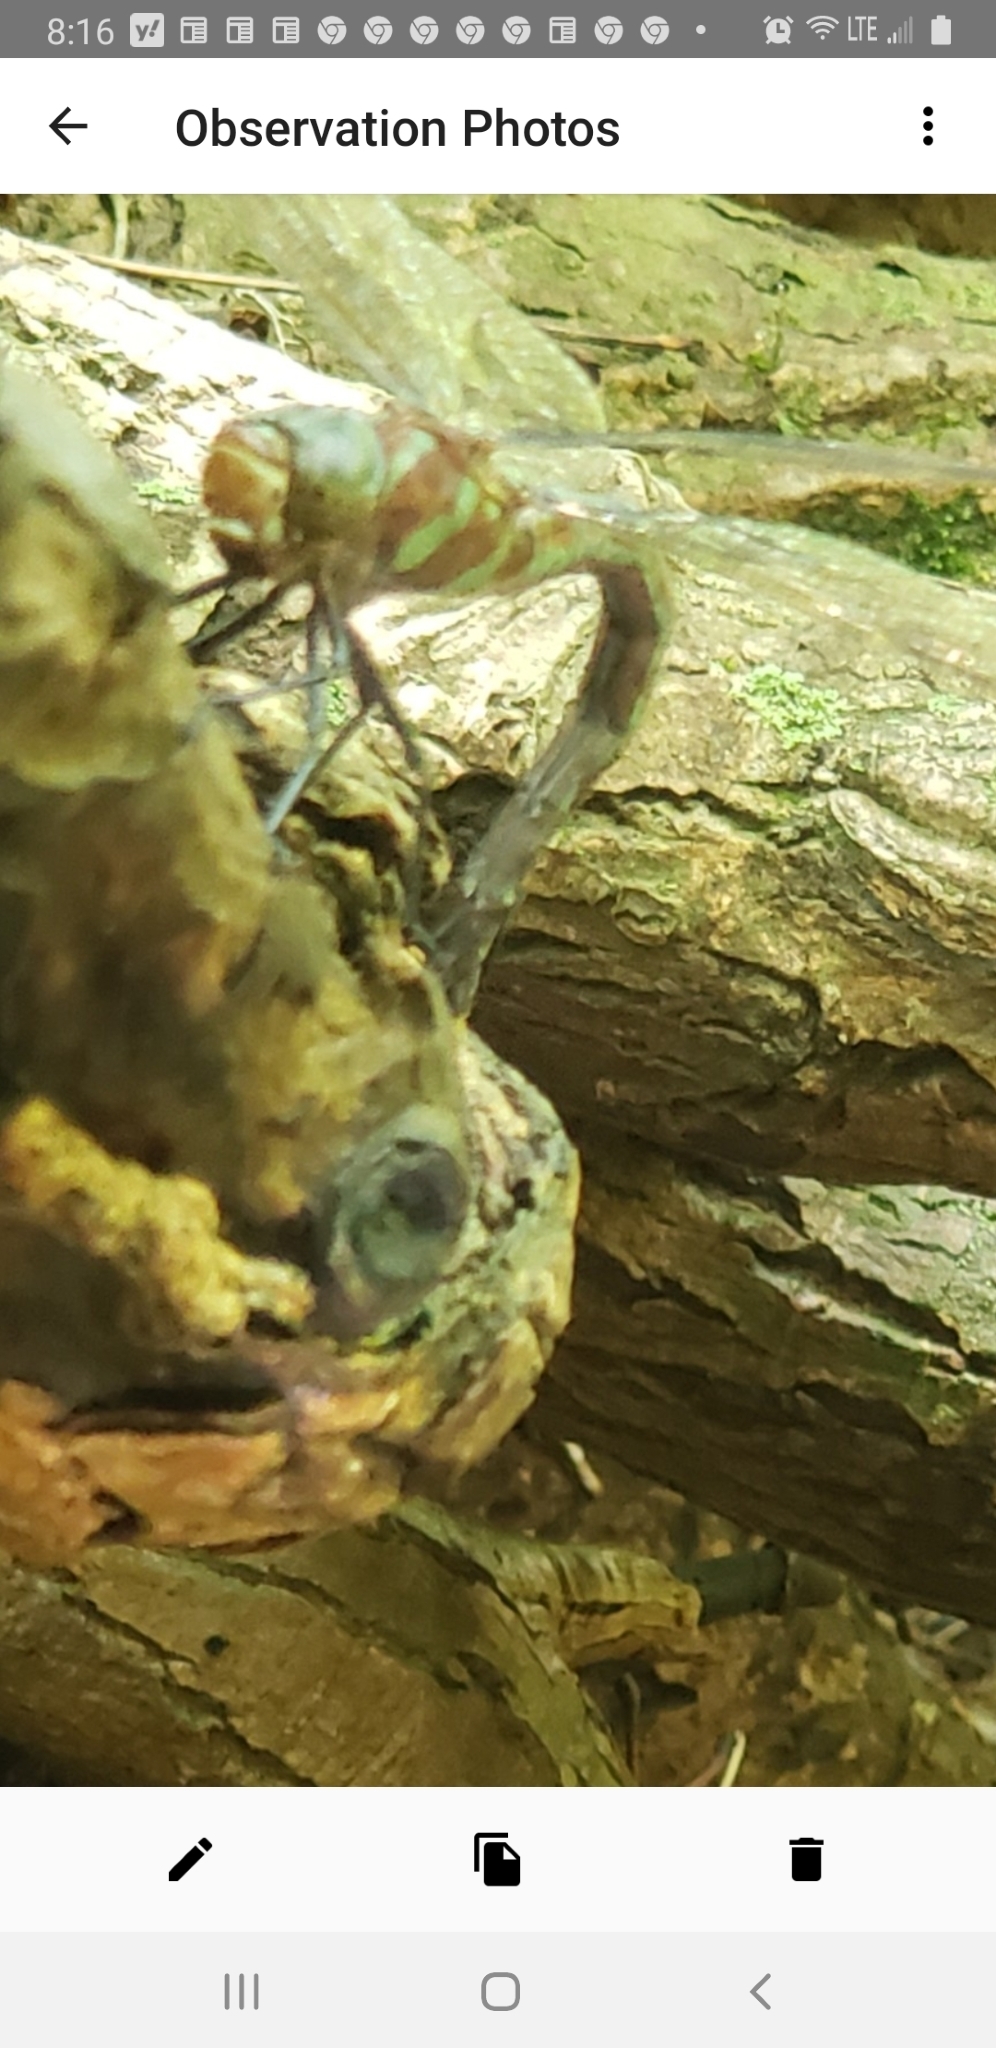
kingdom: Animalia
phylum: Arthropoda
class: Insecta
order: Odonata
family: Aeshnidae
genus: Epiaeschna
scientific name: Epiaeschna heros
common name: Swamp darner
